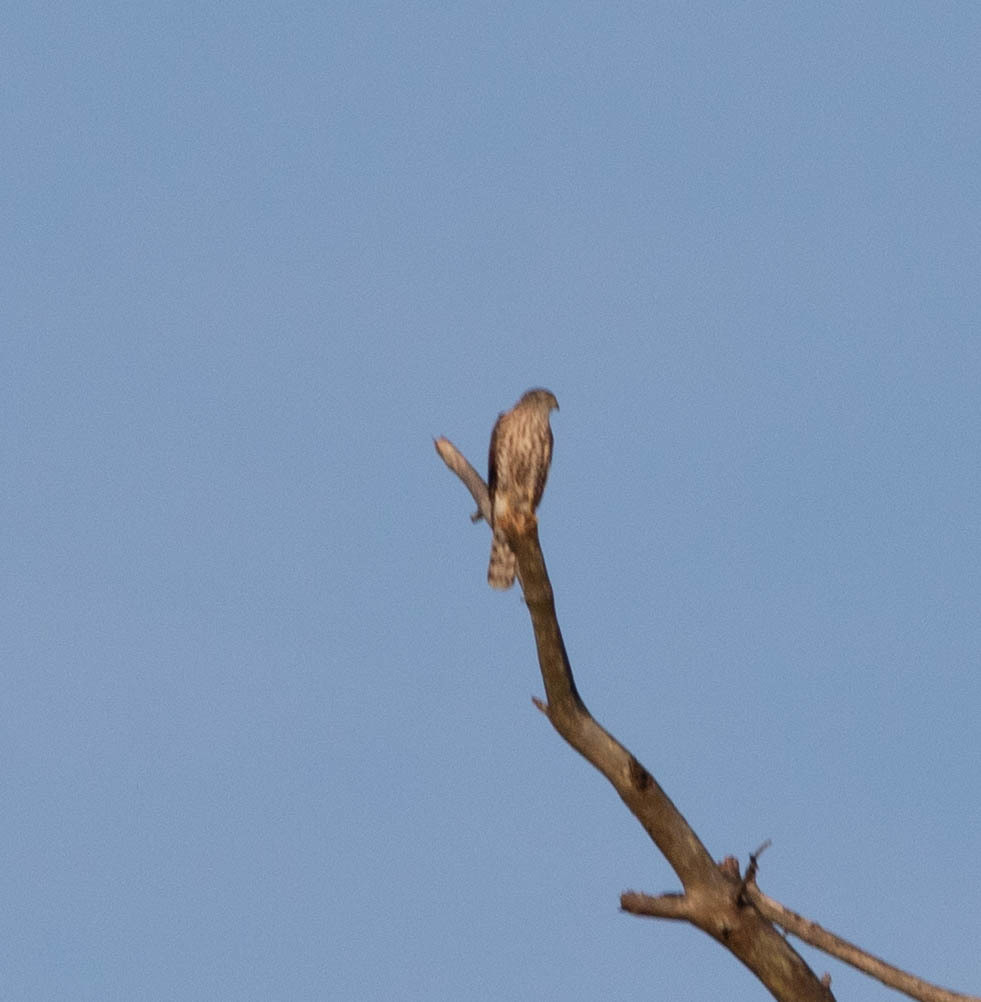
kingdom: Animalia
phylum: Chordata
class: Aves
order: Accipitriformes
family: Accipitridae
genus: Accipiter
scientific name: Accipiter cooperii
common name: Cooper's hawk
